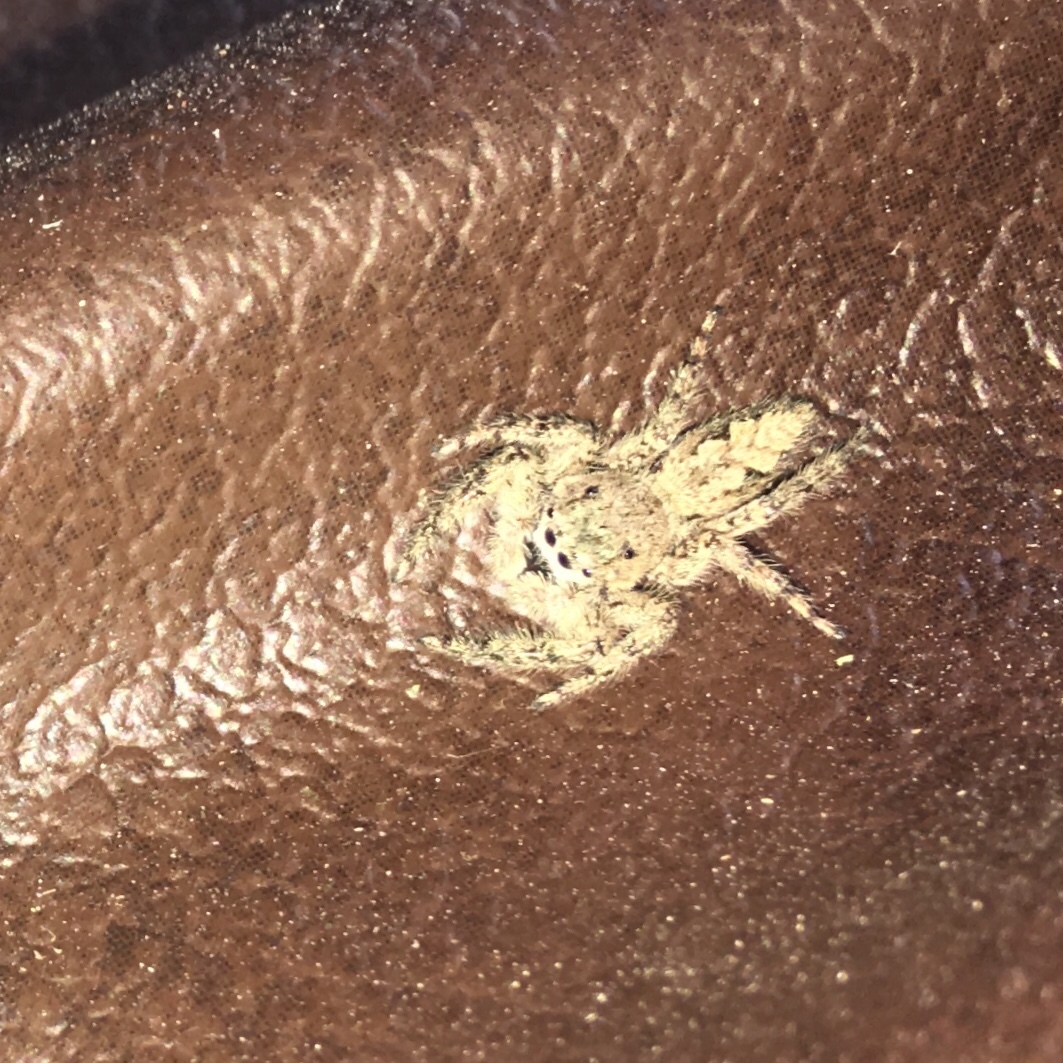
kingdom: Animalia
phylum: Arthropoda
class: Arachnida
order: Araneae
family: Salticidae
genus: Platycryptus
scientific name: Platycryptus undatus
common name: Tan jumping spider
